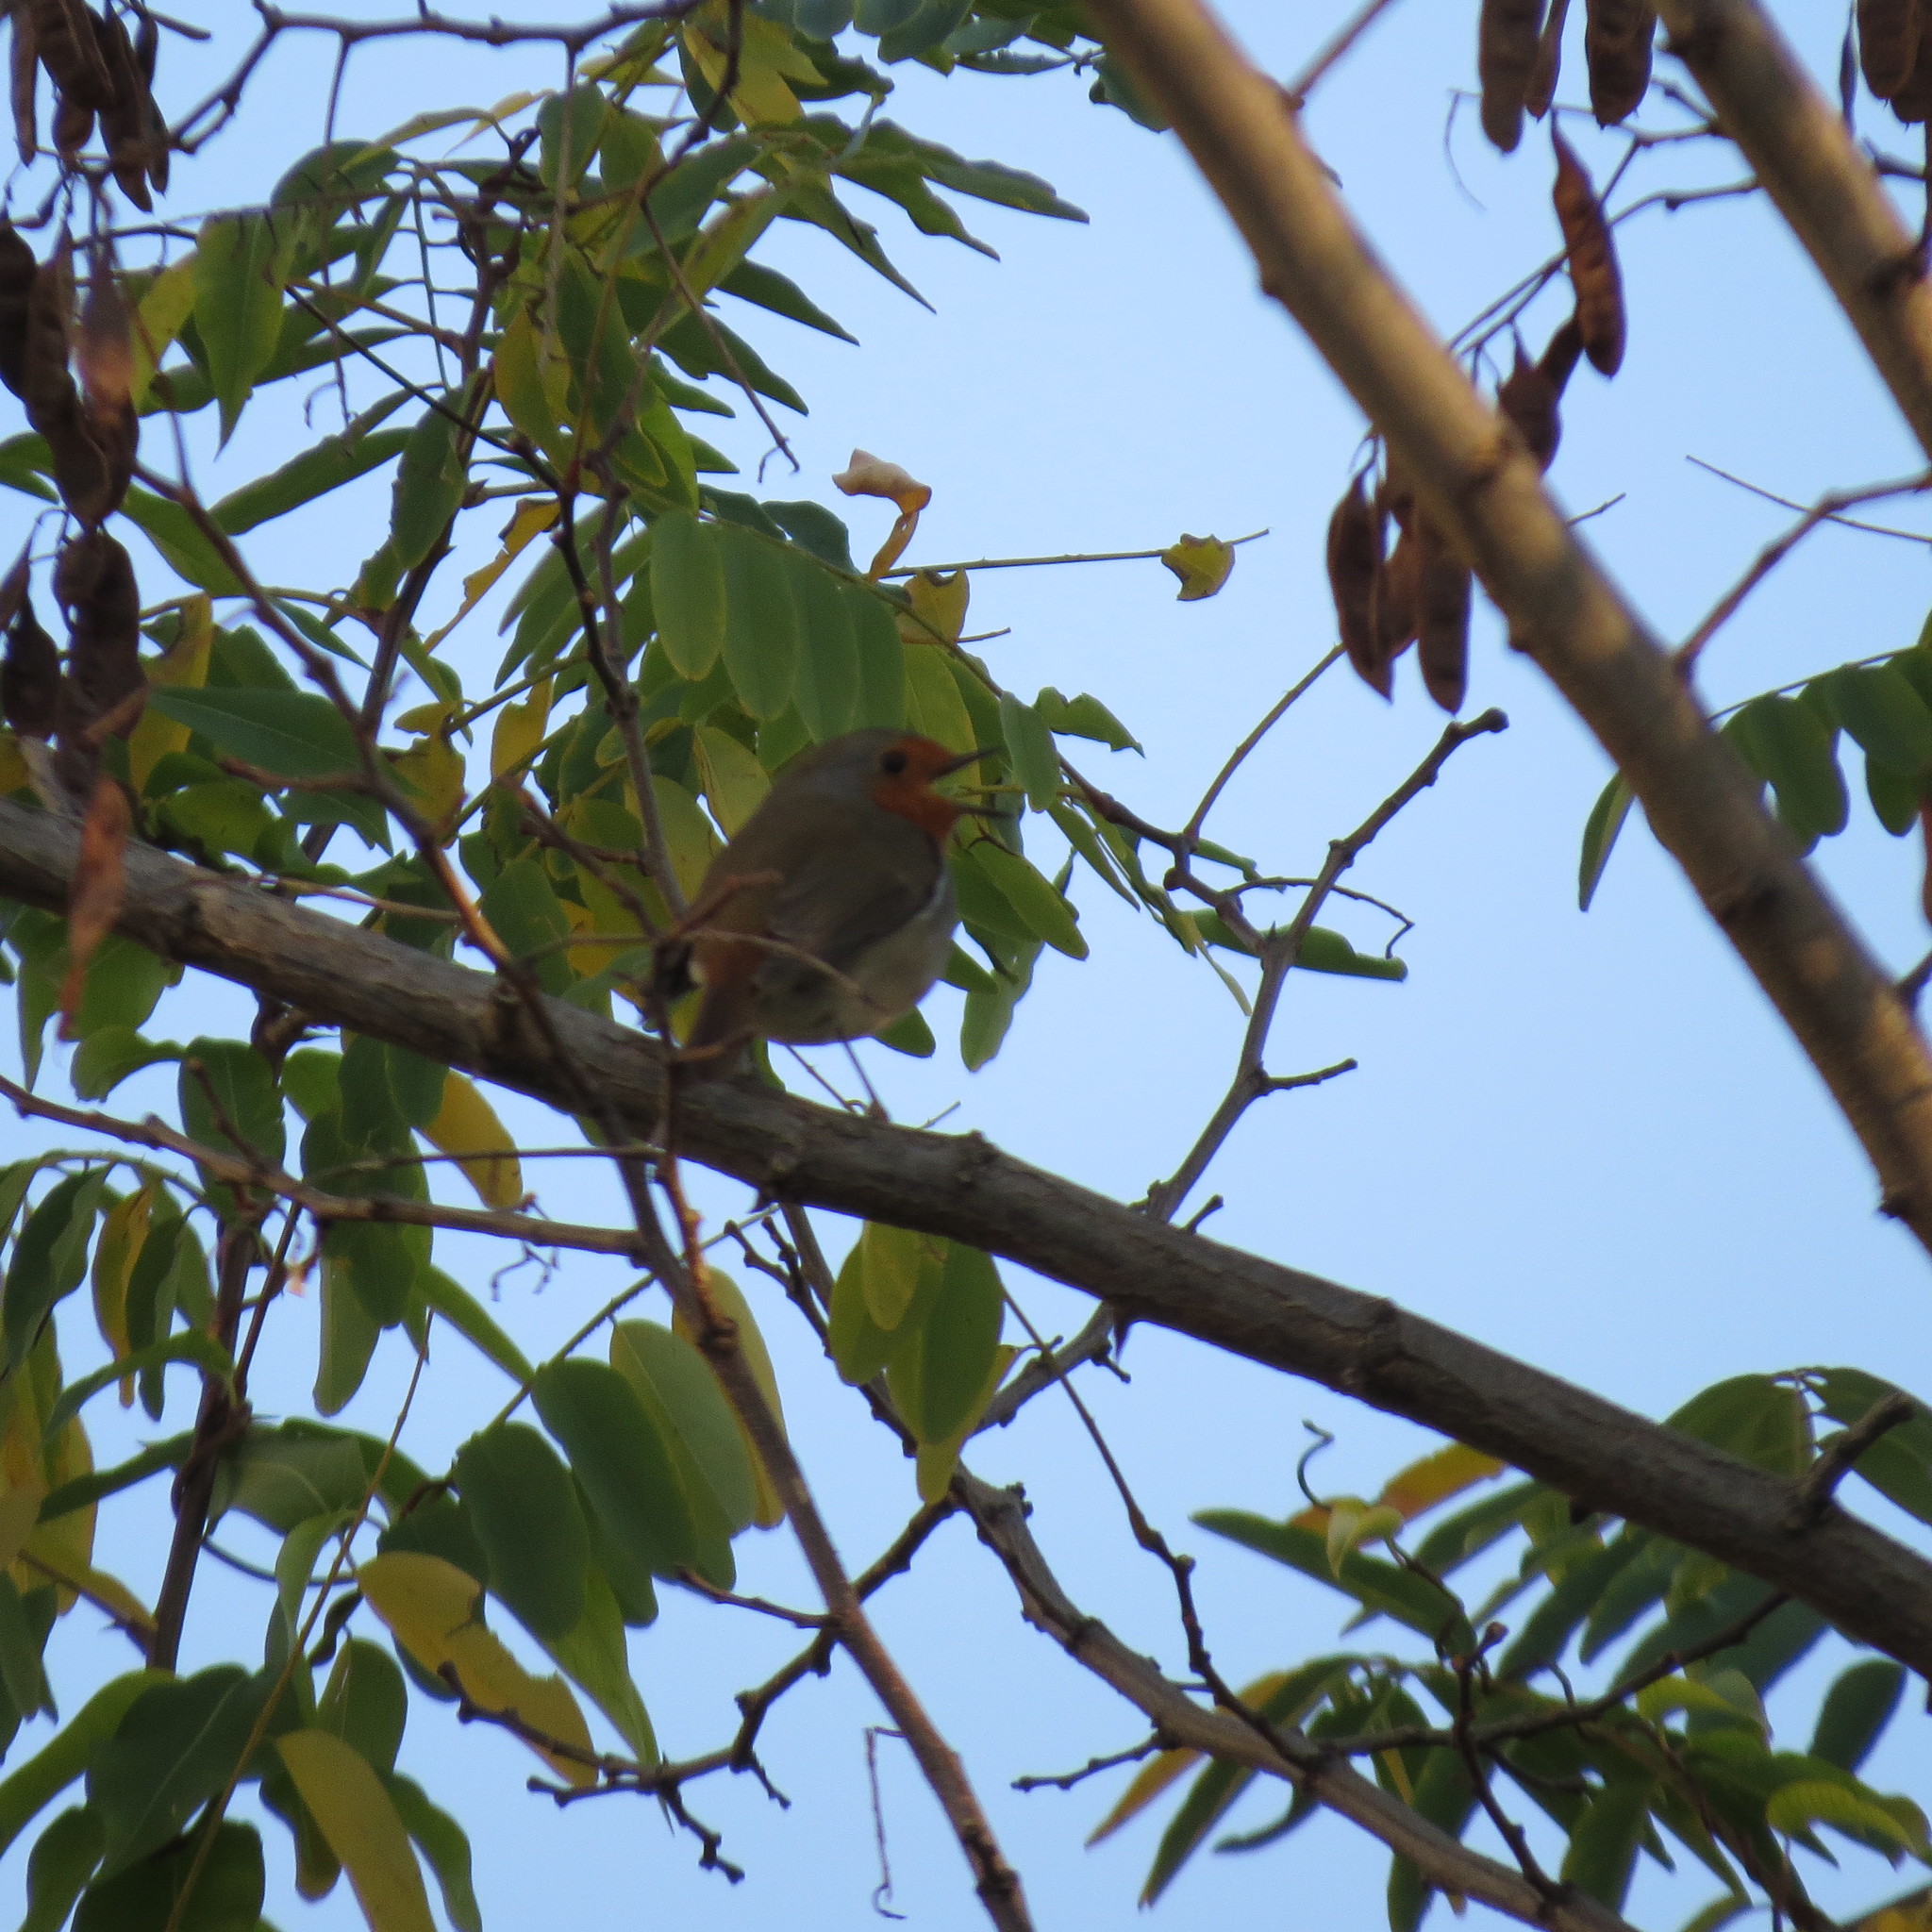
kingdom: Animalia
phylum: Chordata
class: Aves
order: Passeriformes
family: Muscicapidae
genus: Erithacus
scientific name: Erithacus rubecula
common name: European robin
